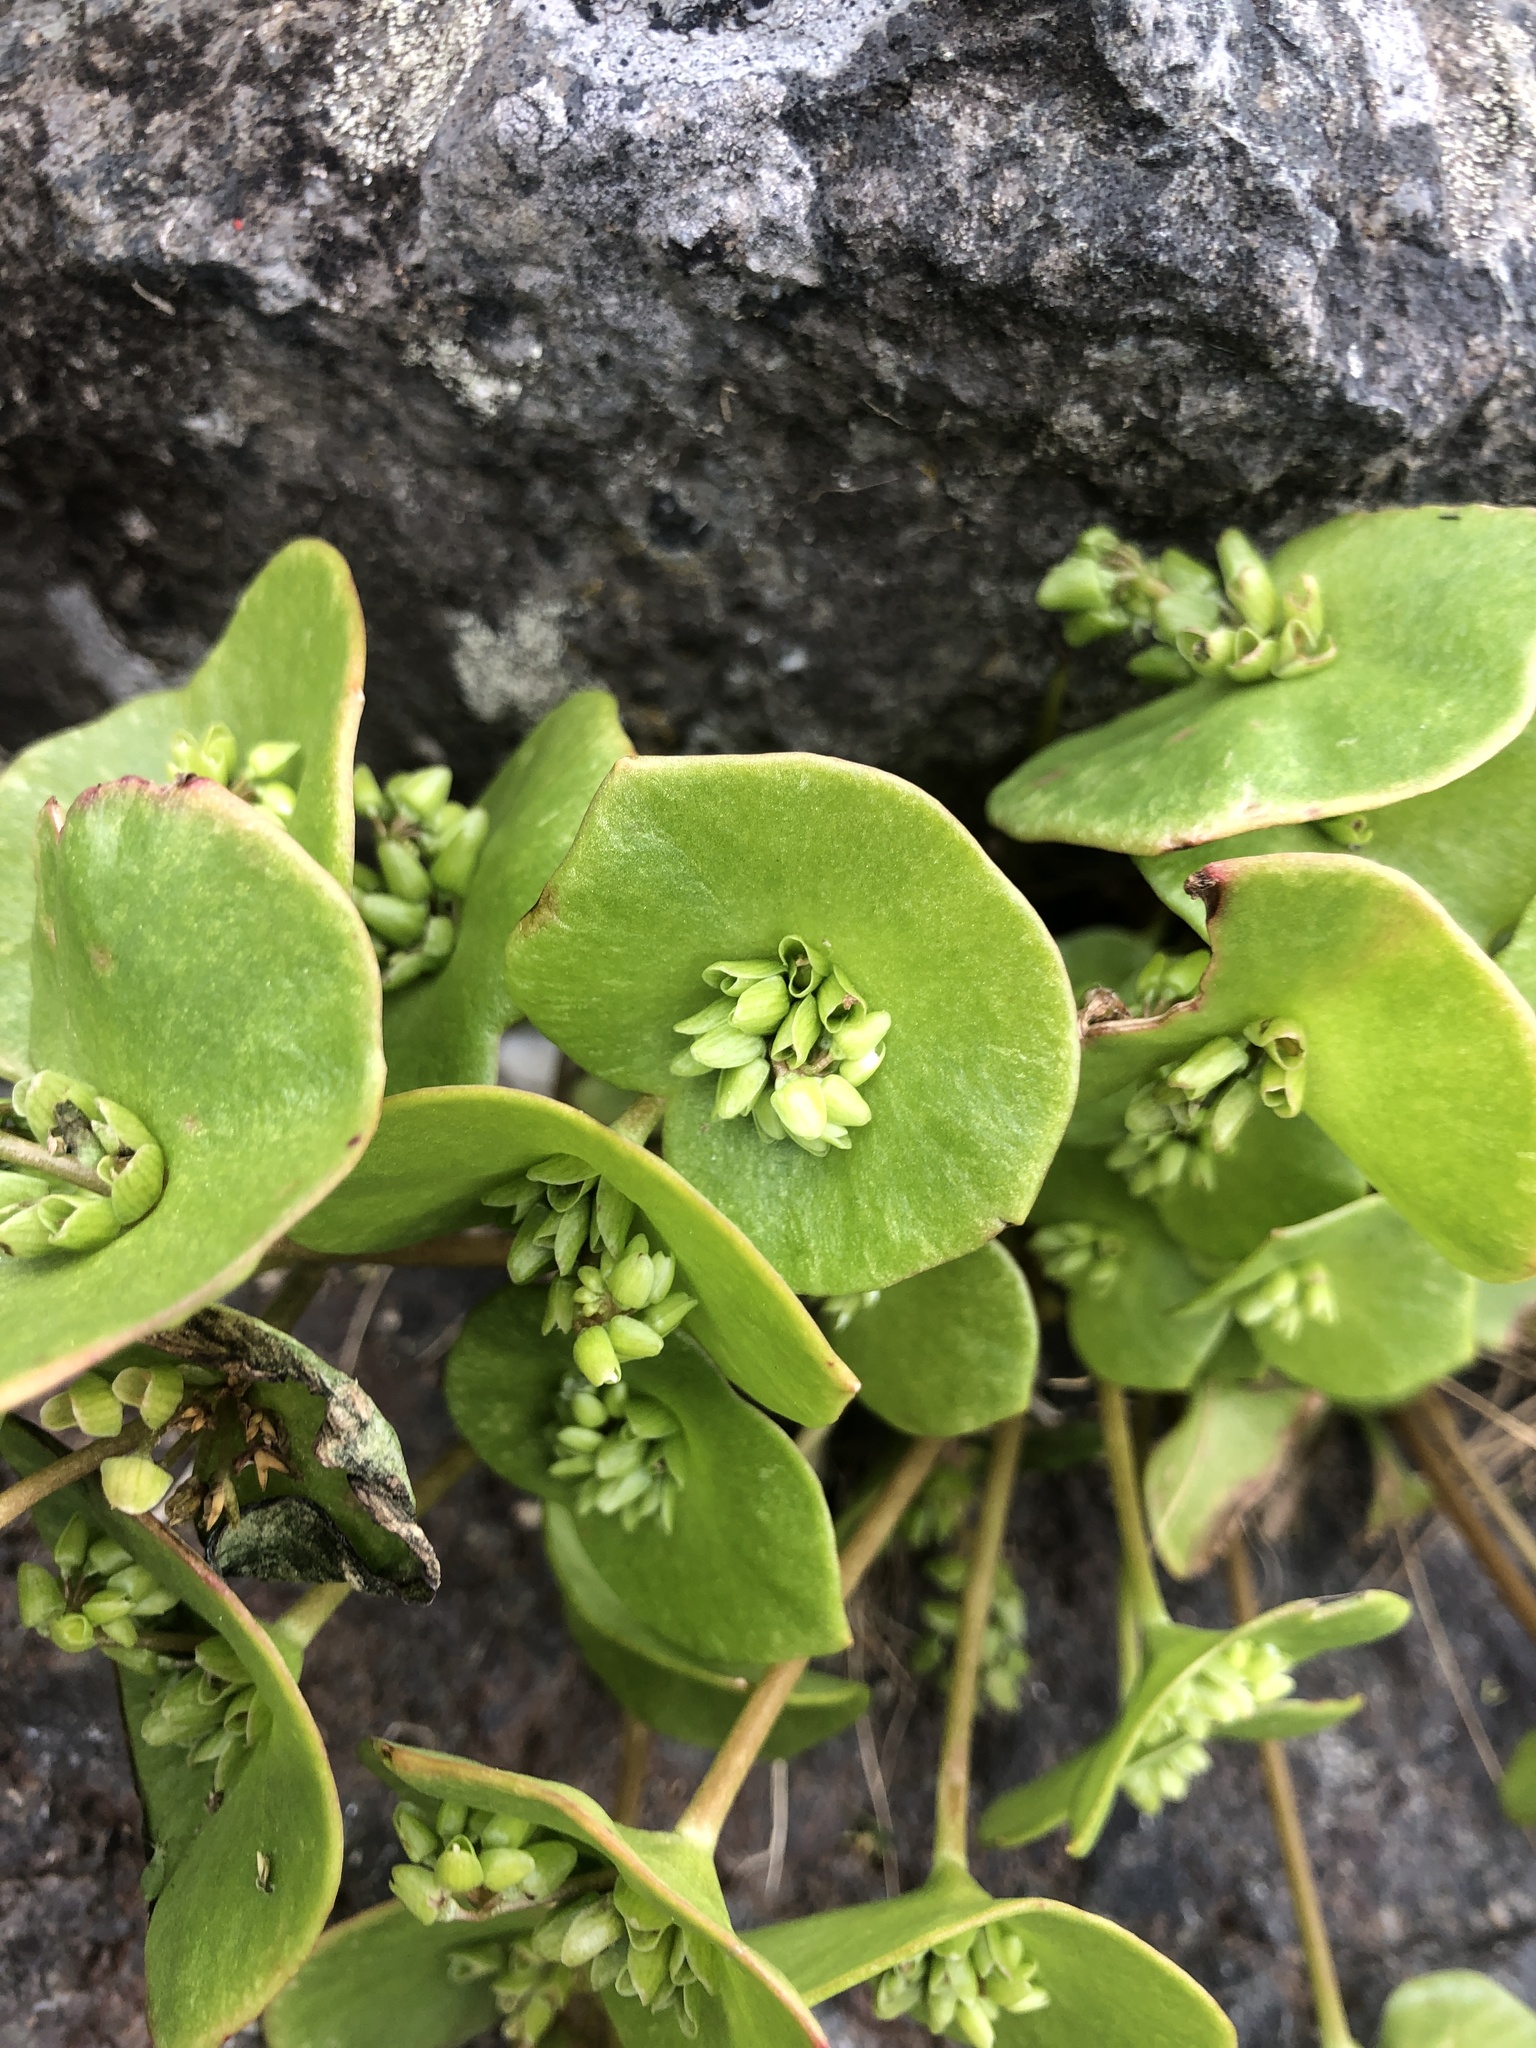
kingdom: Plantae
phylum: Tracheophyta
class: Magnoliopsida
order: Caryophyllales
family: Montiaceae
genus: Claytonia
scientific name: Claytonia perfoliata
